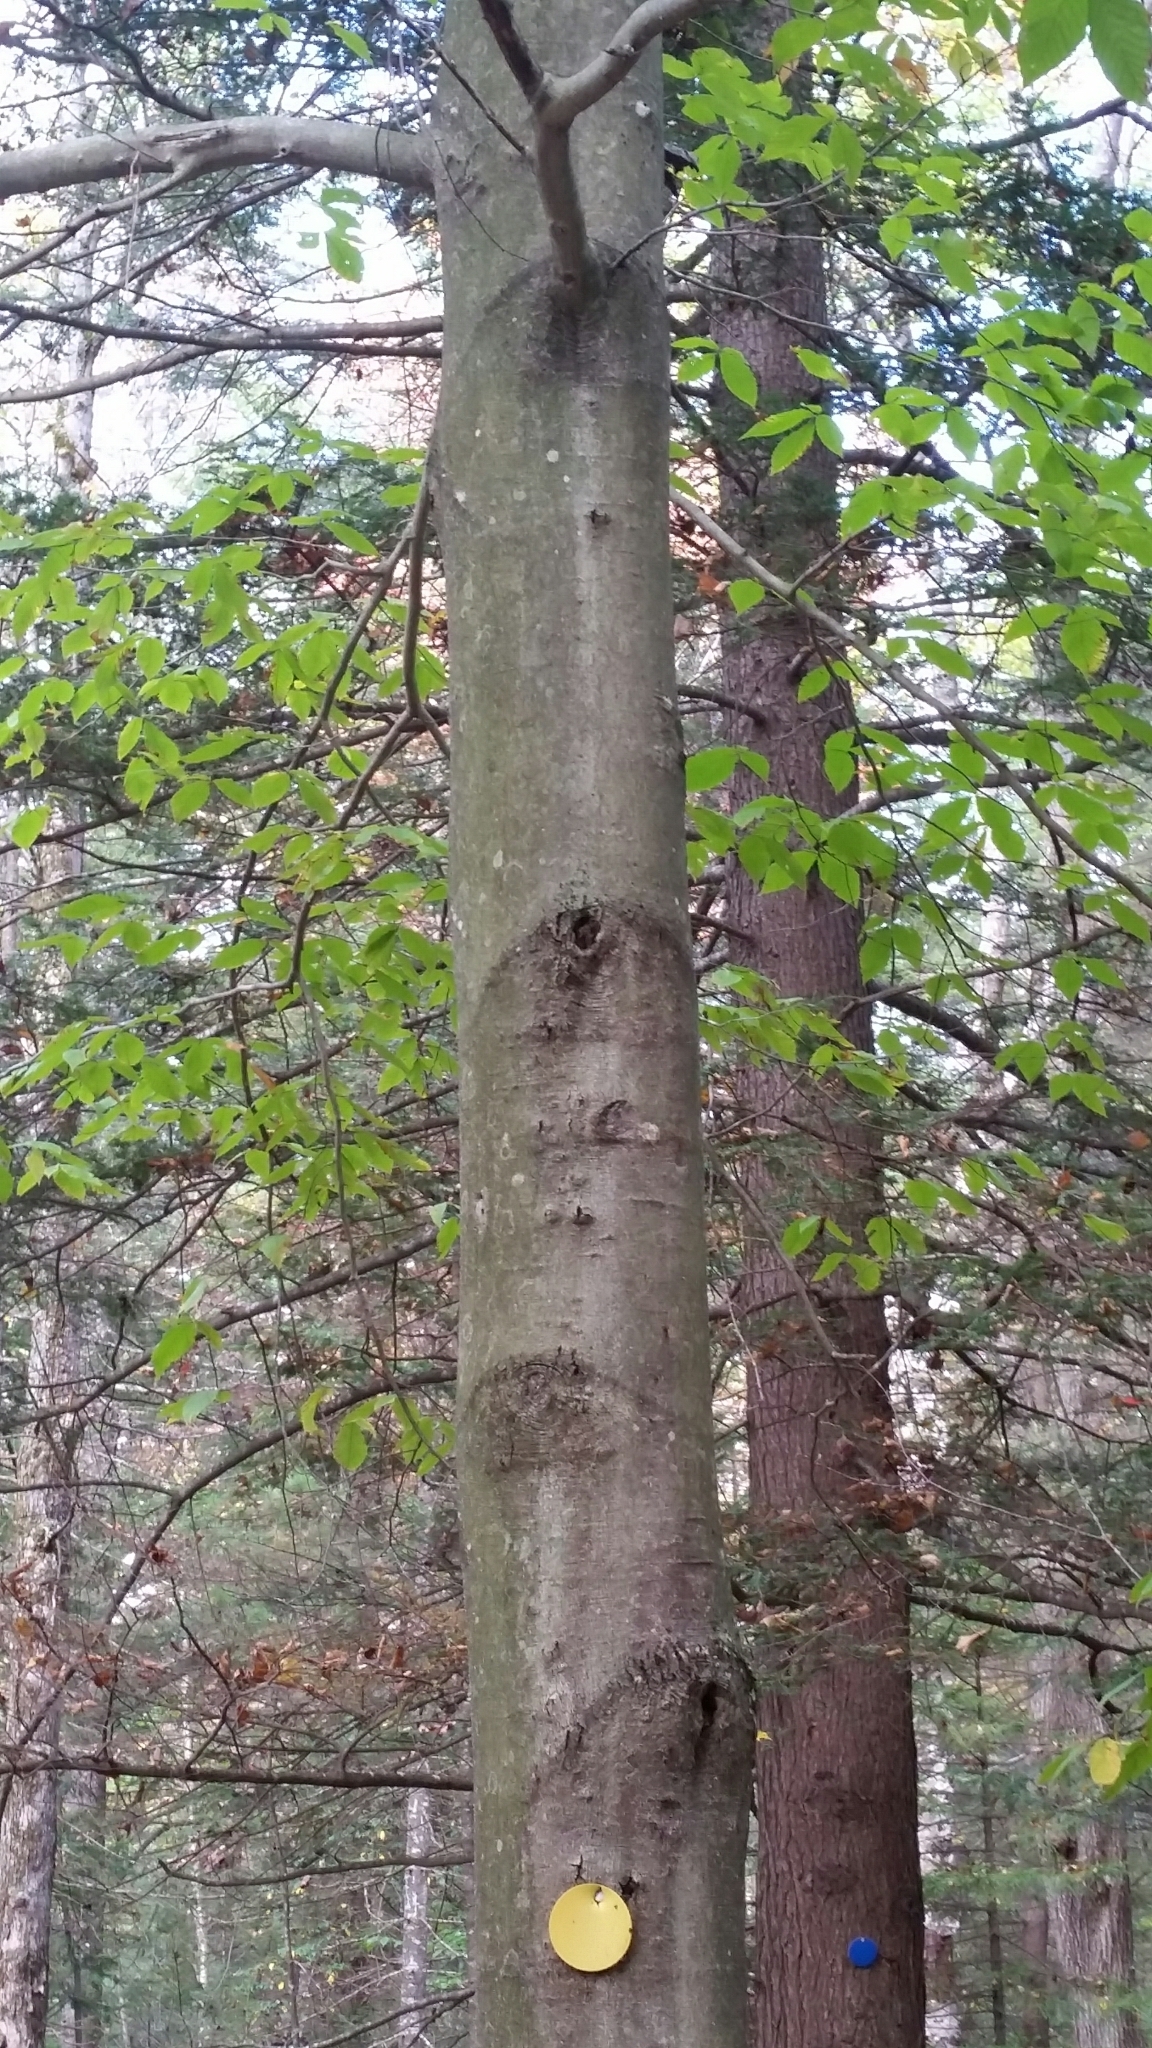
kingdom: Plantae
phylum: Tracheophyta
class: Magnoliopsida
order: Fagales
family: Fagaceae
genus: Fagus
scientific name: Fagus grandifolia
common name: American beech
